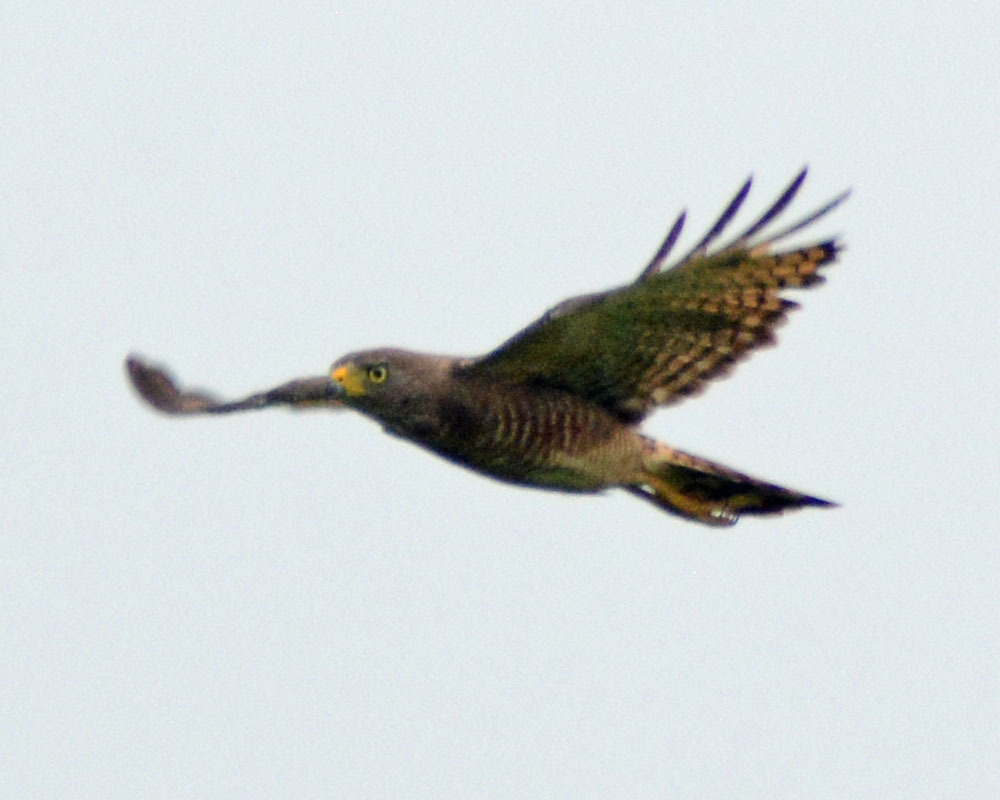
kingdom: Animalia
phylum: Chordata
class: Aves
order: Accipitriformes
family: Accipitridae
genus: Rupornis
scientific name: Rupornis magnirostris
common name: Roadside hawk
